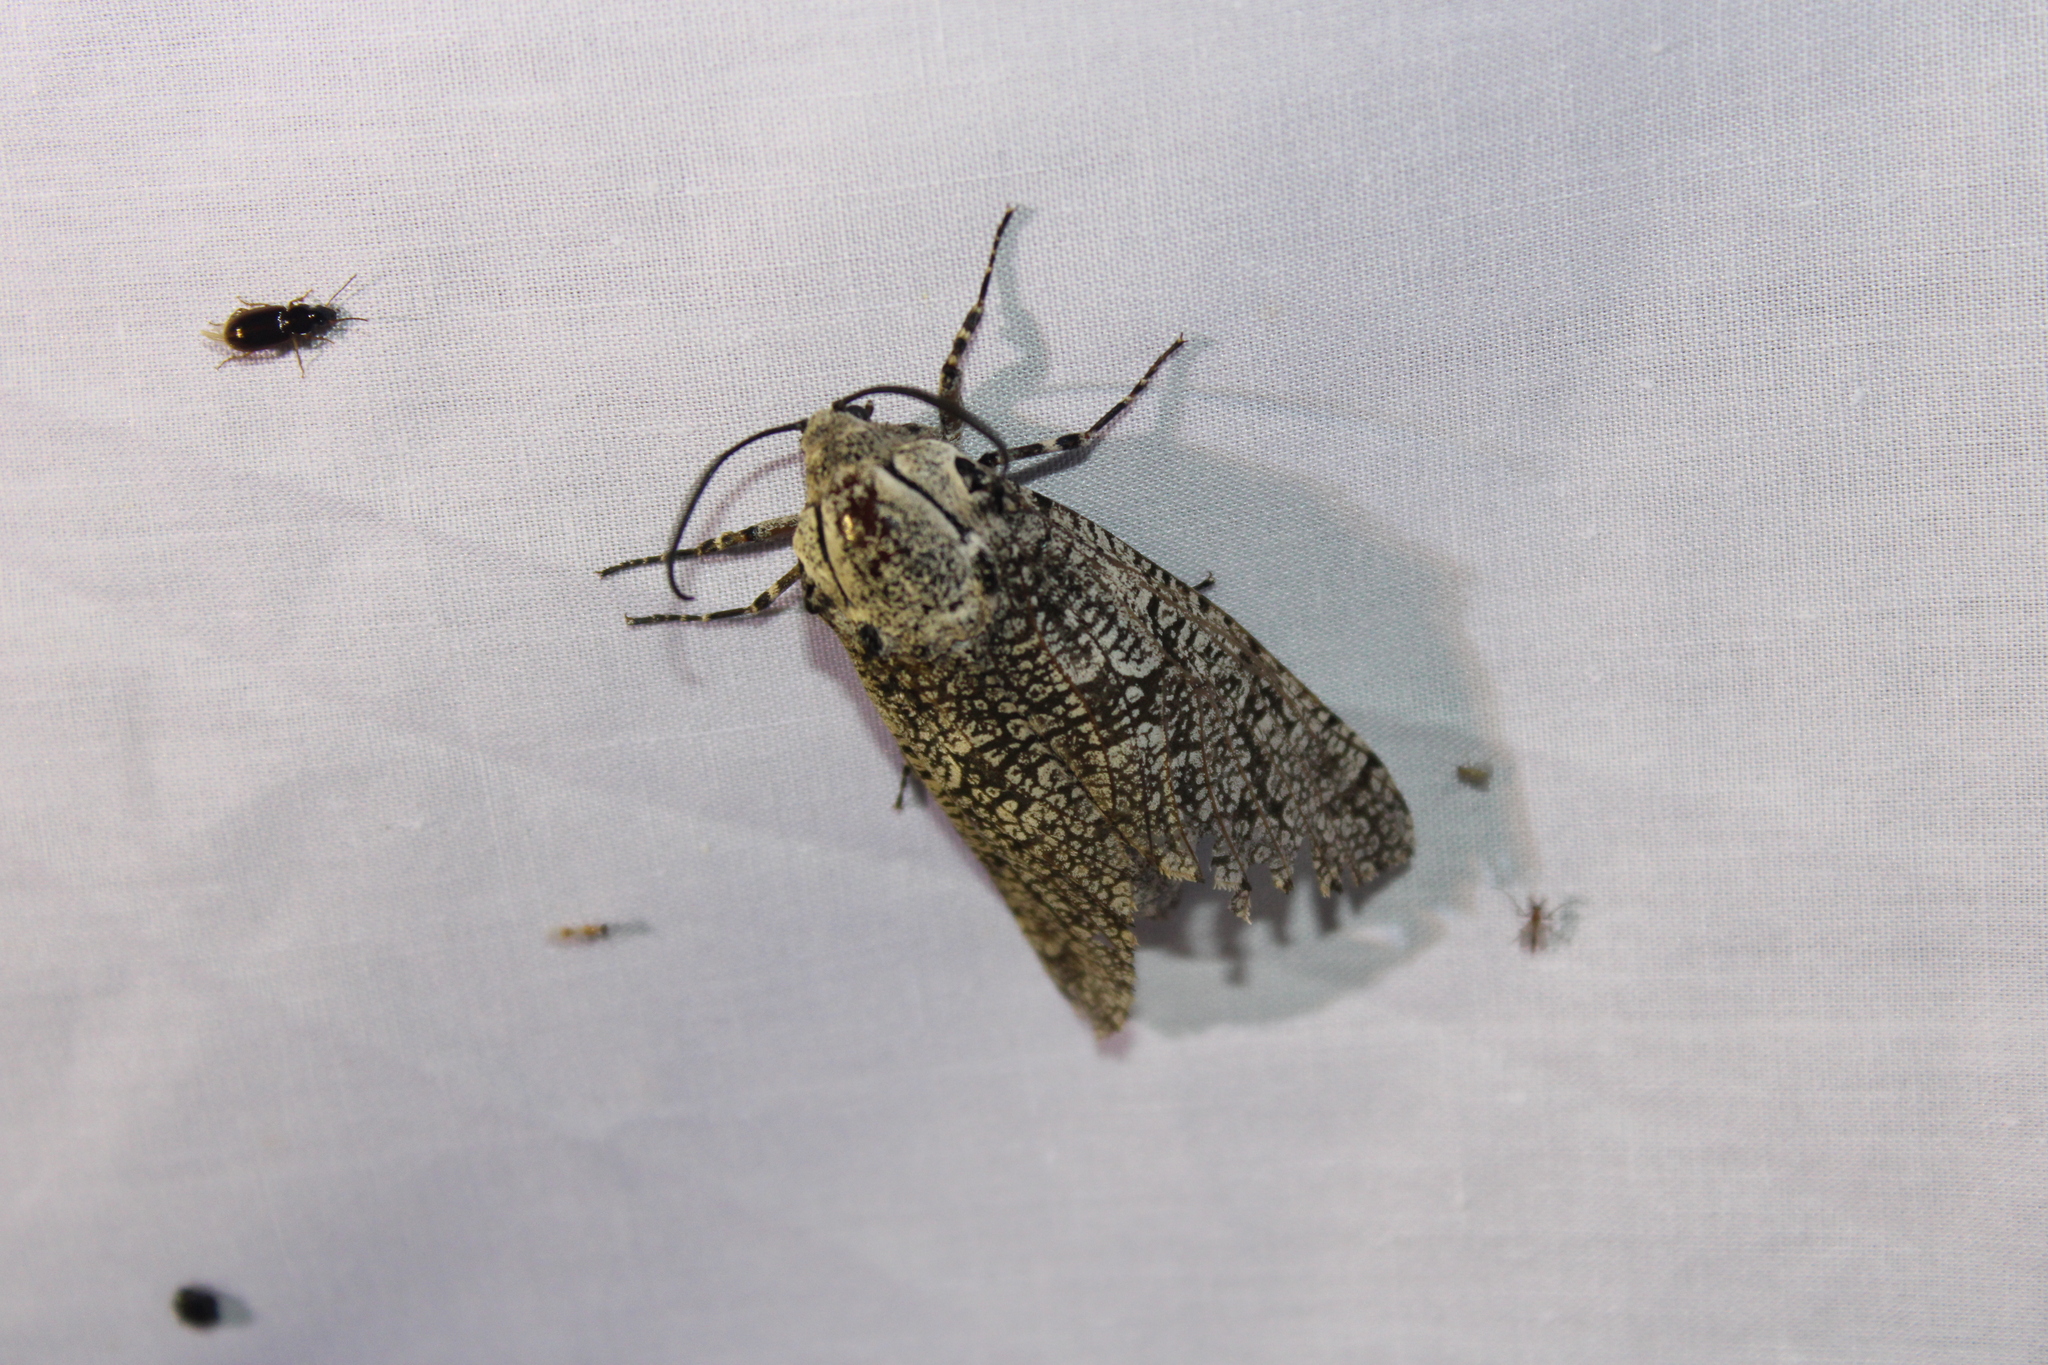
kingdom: Animalia
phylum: Arthropoda
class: Insecta
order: Lepidoptera
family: Cossidae
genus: Prionoxystus
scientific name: Prionoxystus robiniae
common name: Carpenterworm
